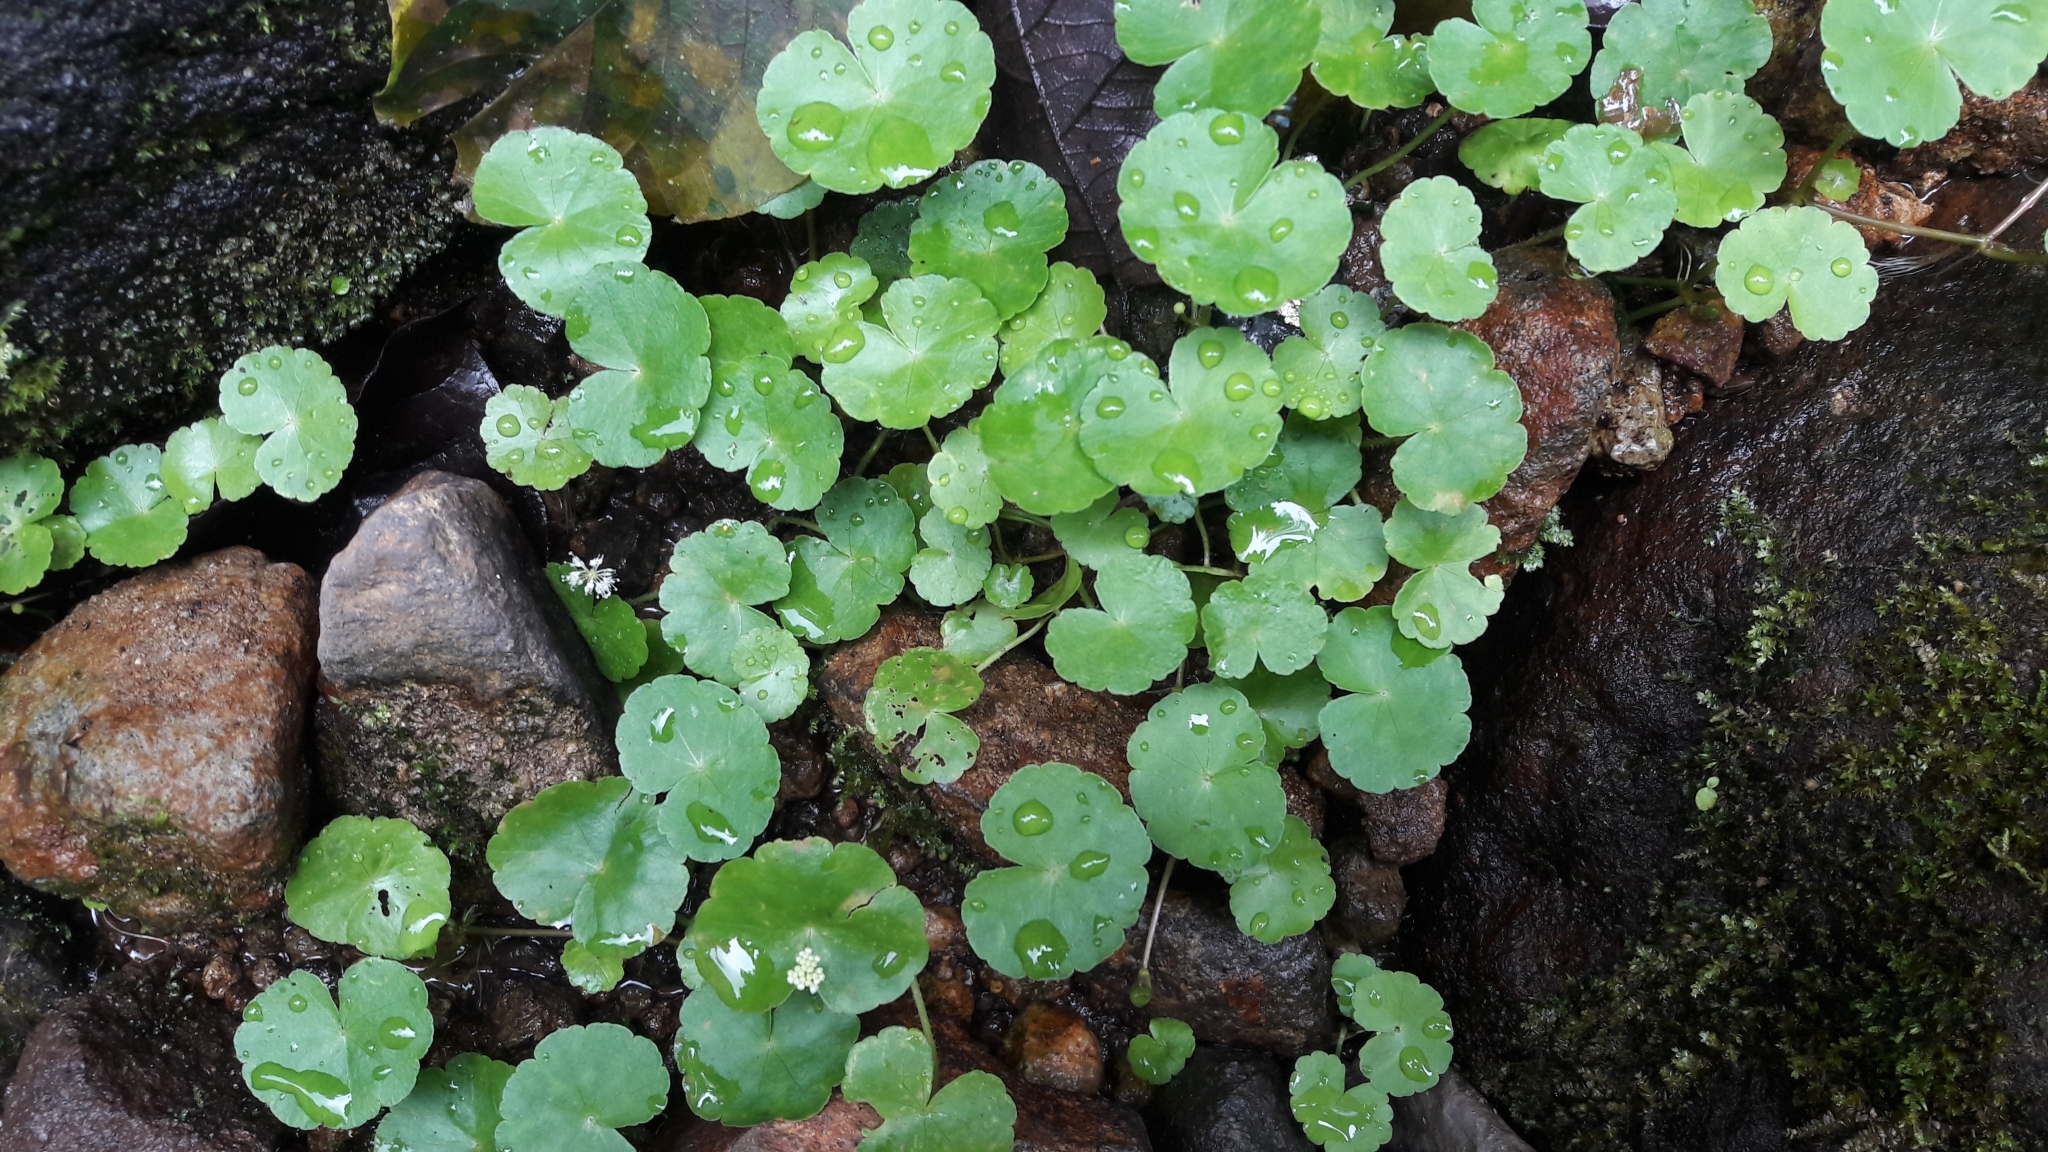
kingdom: Plantae
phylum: Tracheophyta
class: Magnoliopsida
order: Apiales
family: Araliaceae
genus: Hydrocotyle
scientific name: Hydrocotyle leucocephala
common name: Brazilian pennywort
